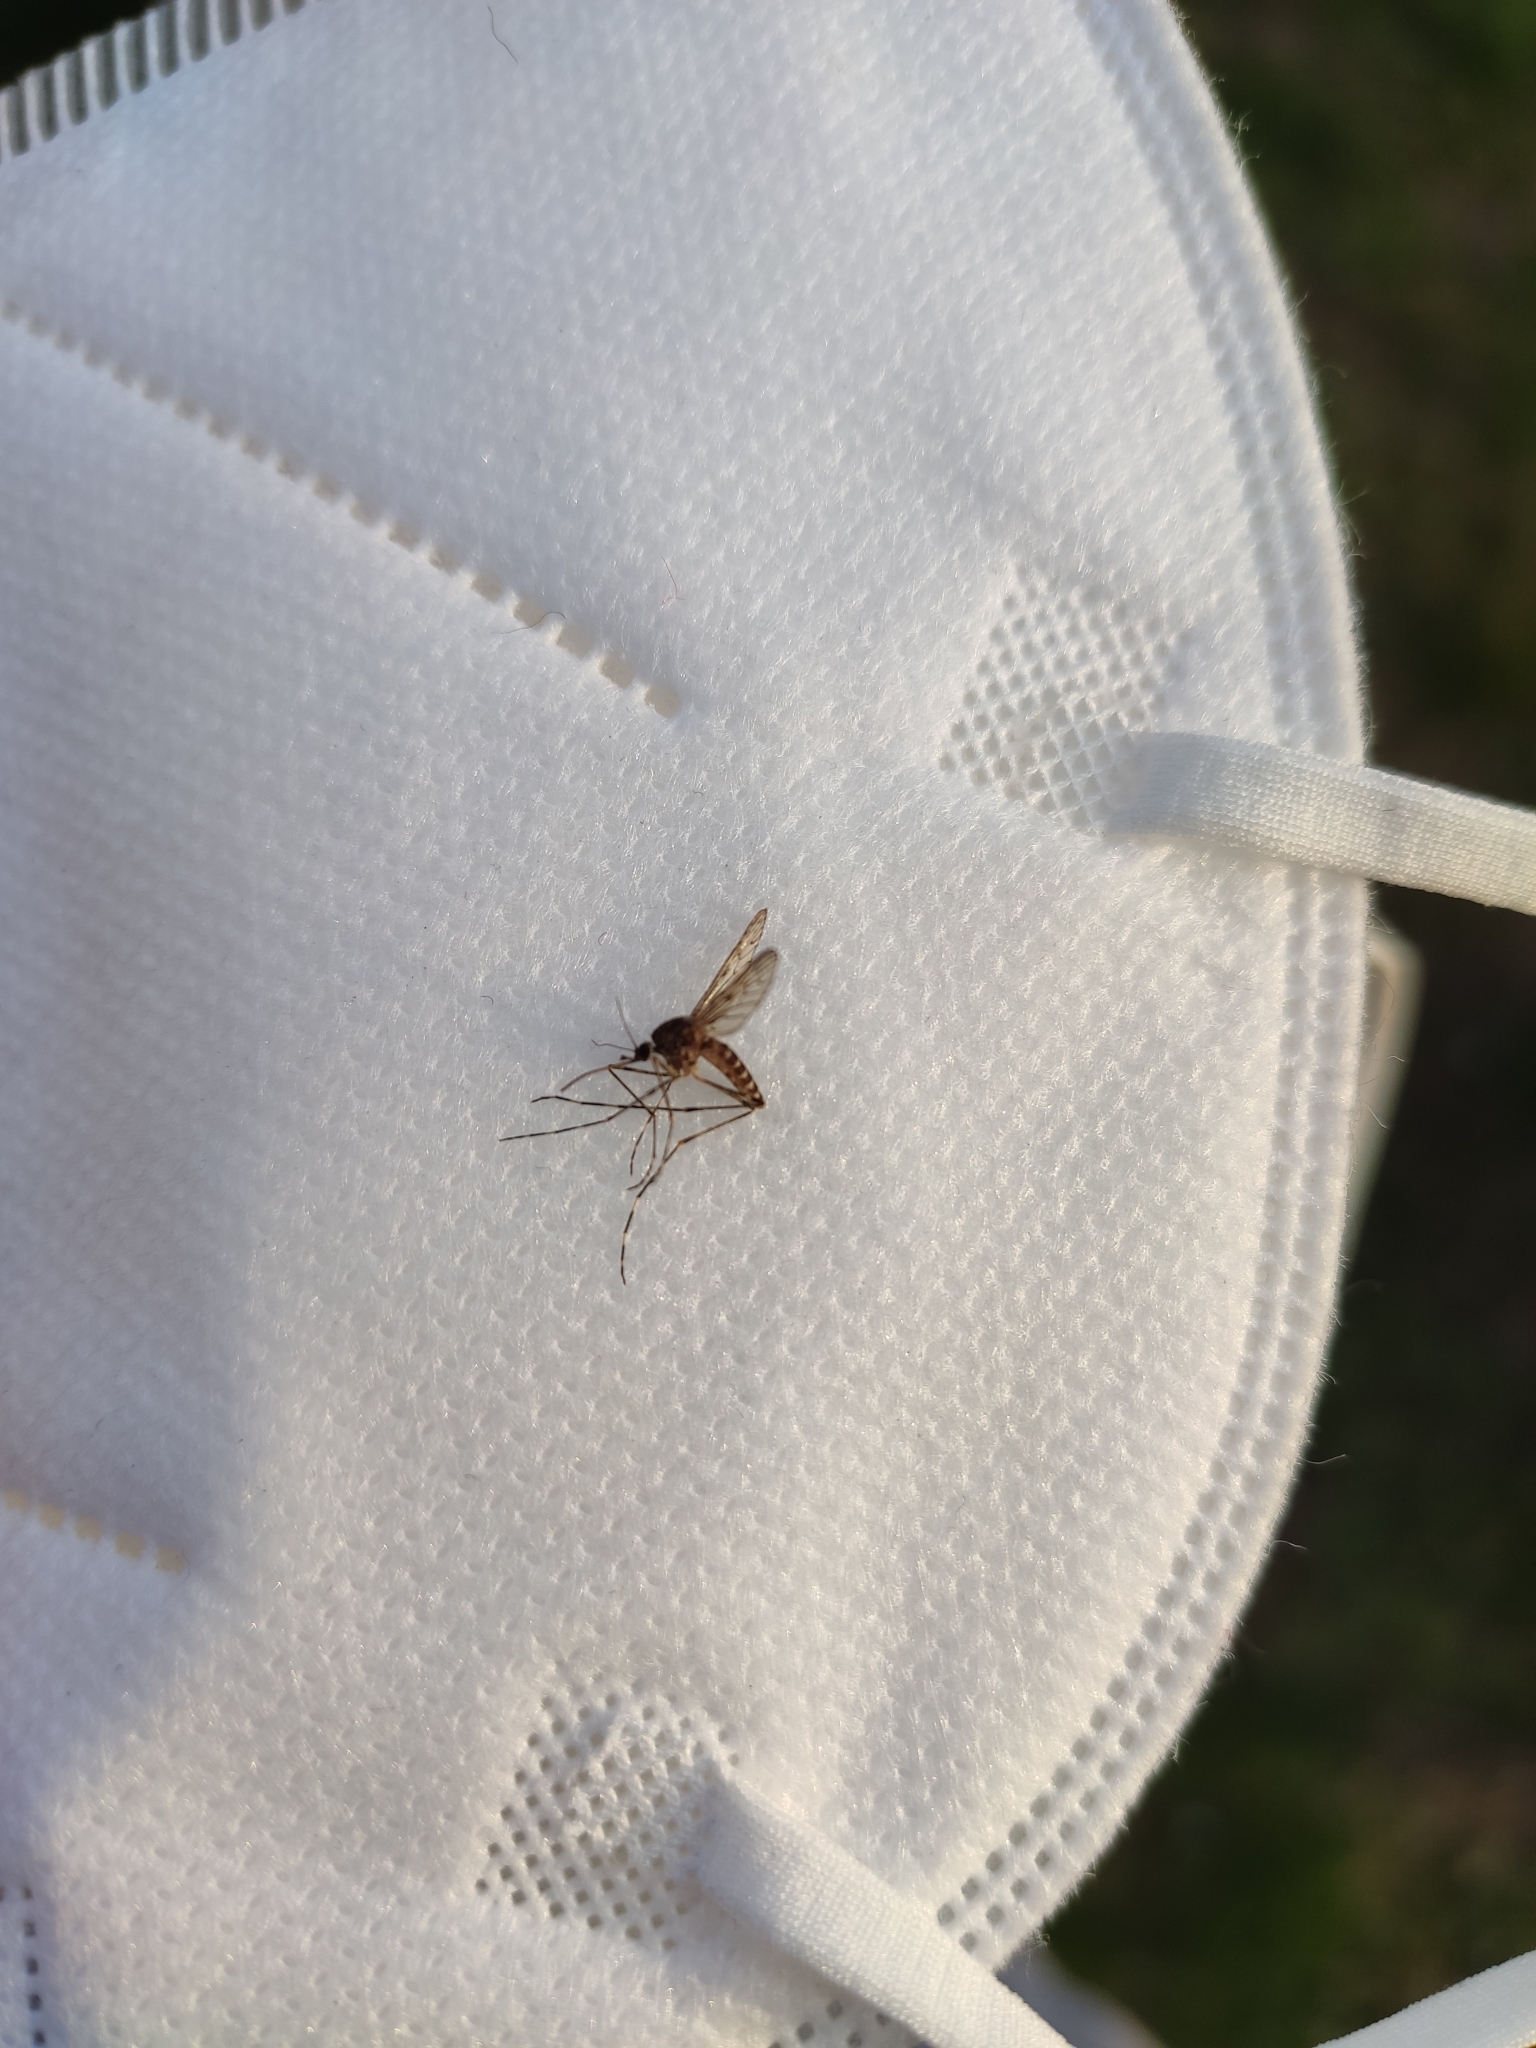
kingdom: Animalia
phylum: Arthropoda
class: Insecta
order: Diptera
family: Culicidae
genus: Culiseta
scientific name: Culiseta annulata
